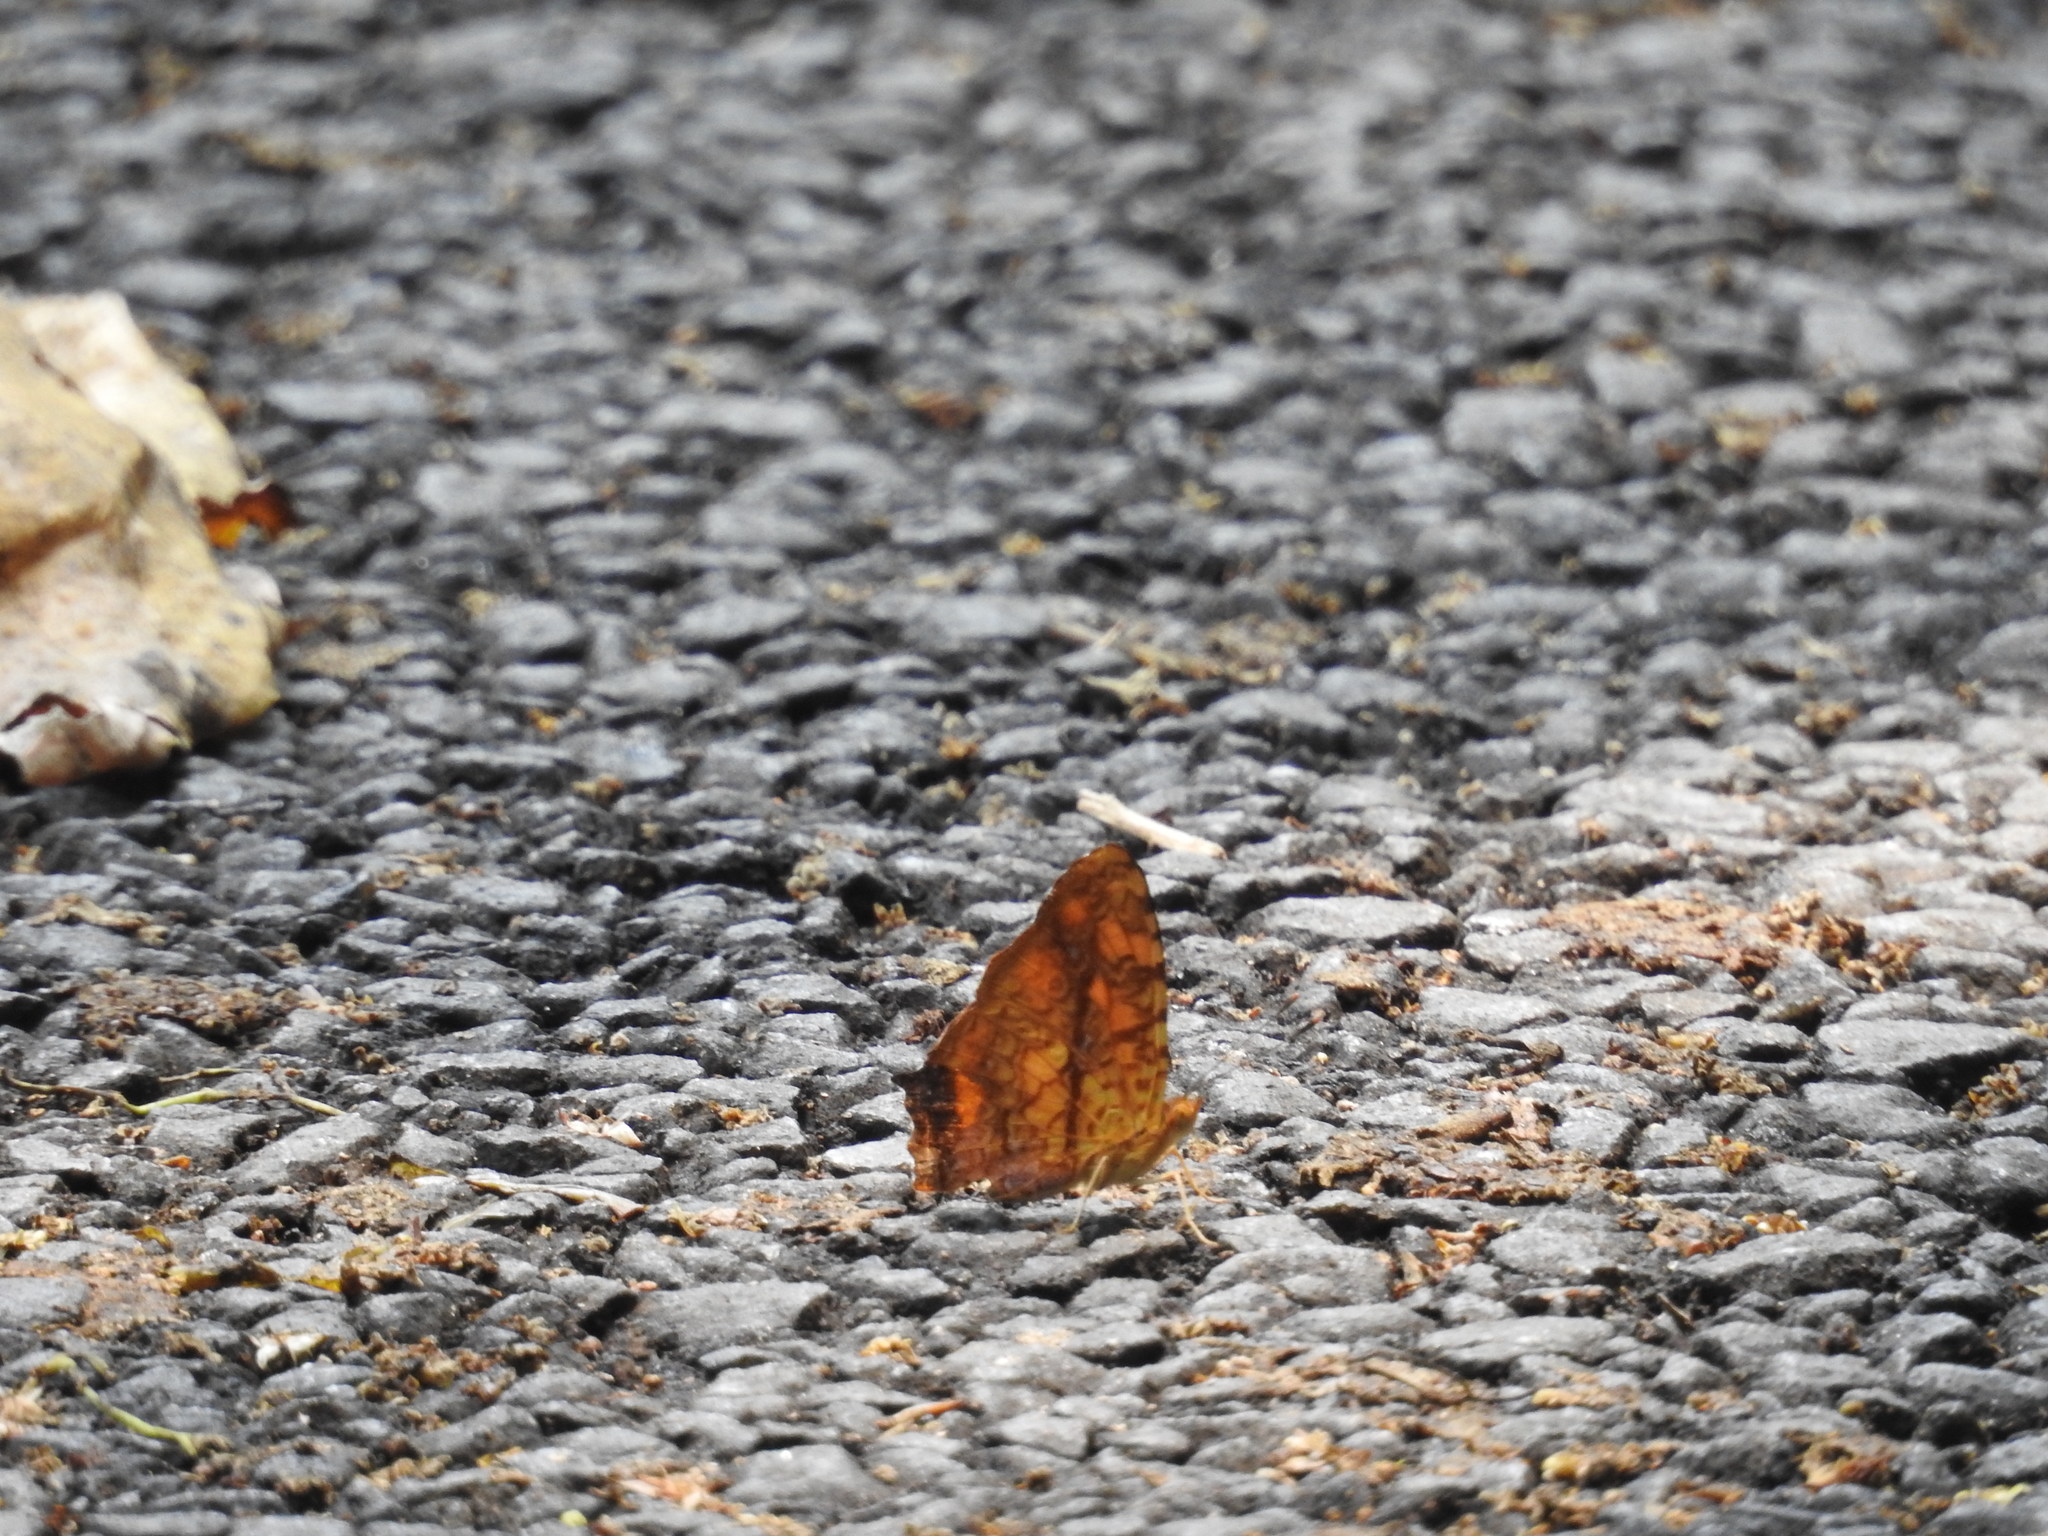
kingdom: Animalia
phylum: Arthropoda
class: Insecta
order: Lepidoptera
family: Nymphalidae
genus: Symbrenthia
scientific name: Symbrenthia hypselis
